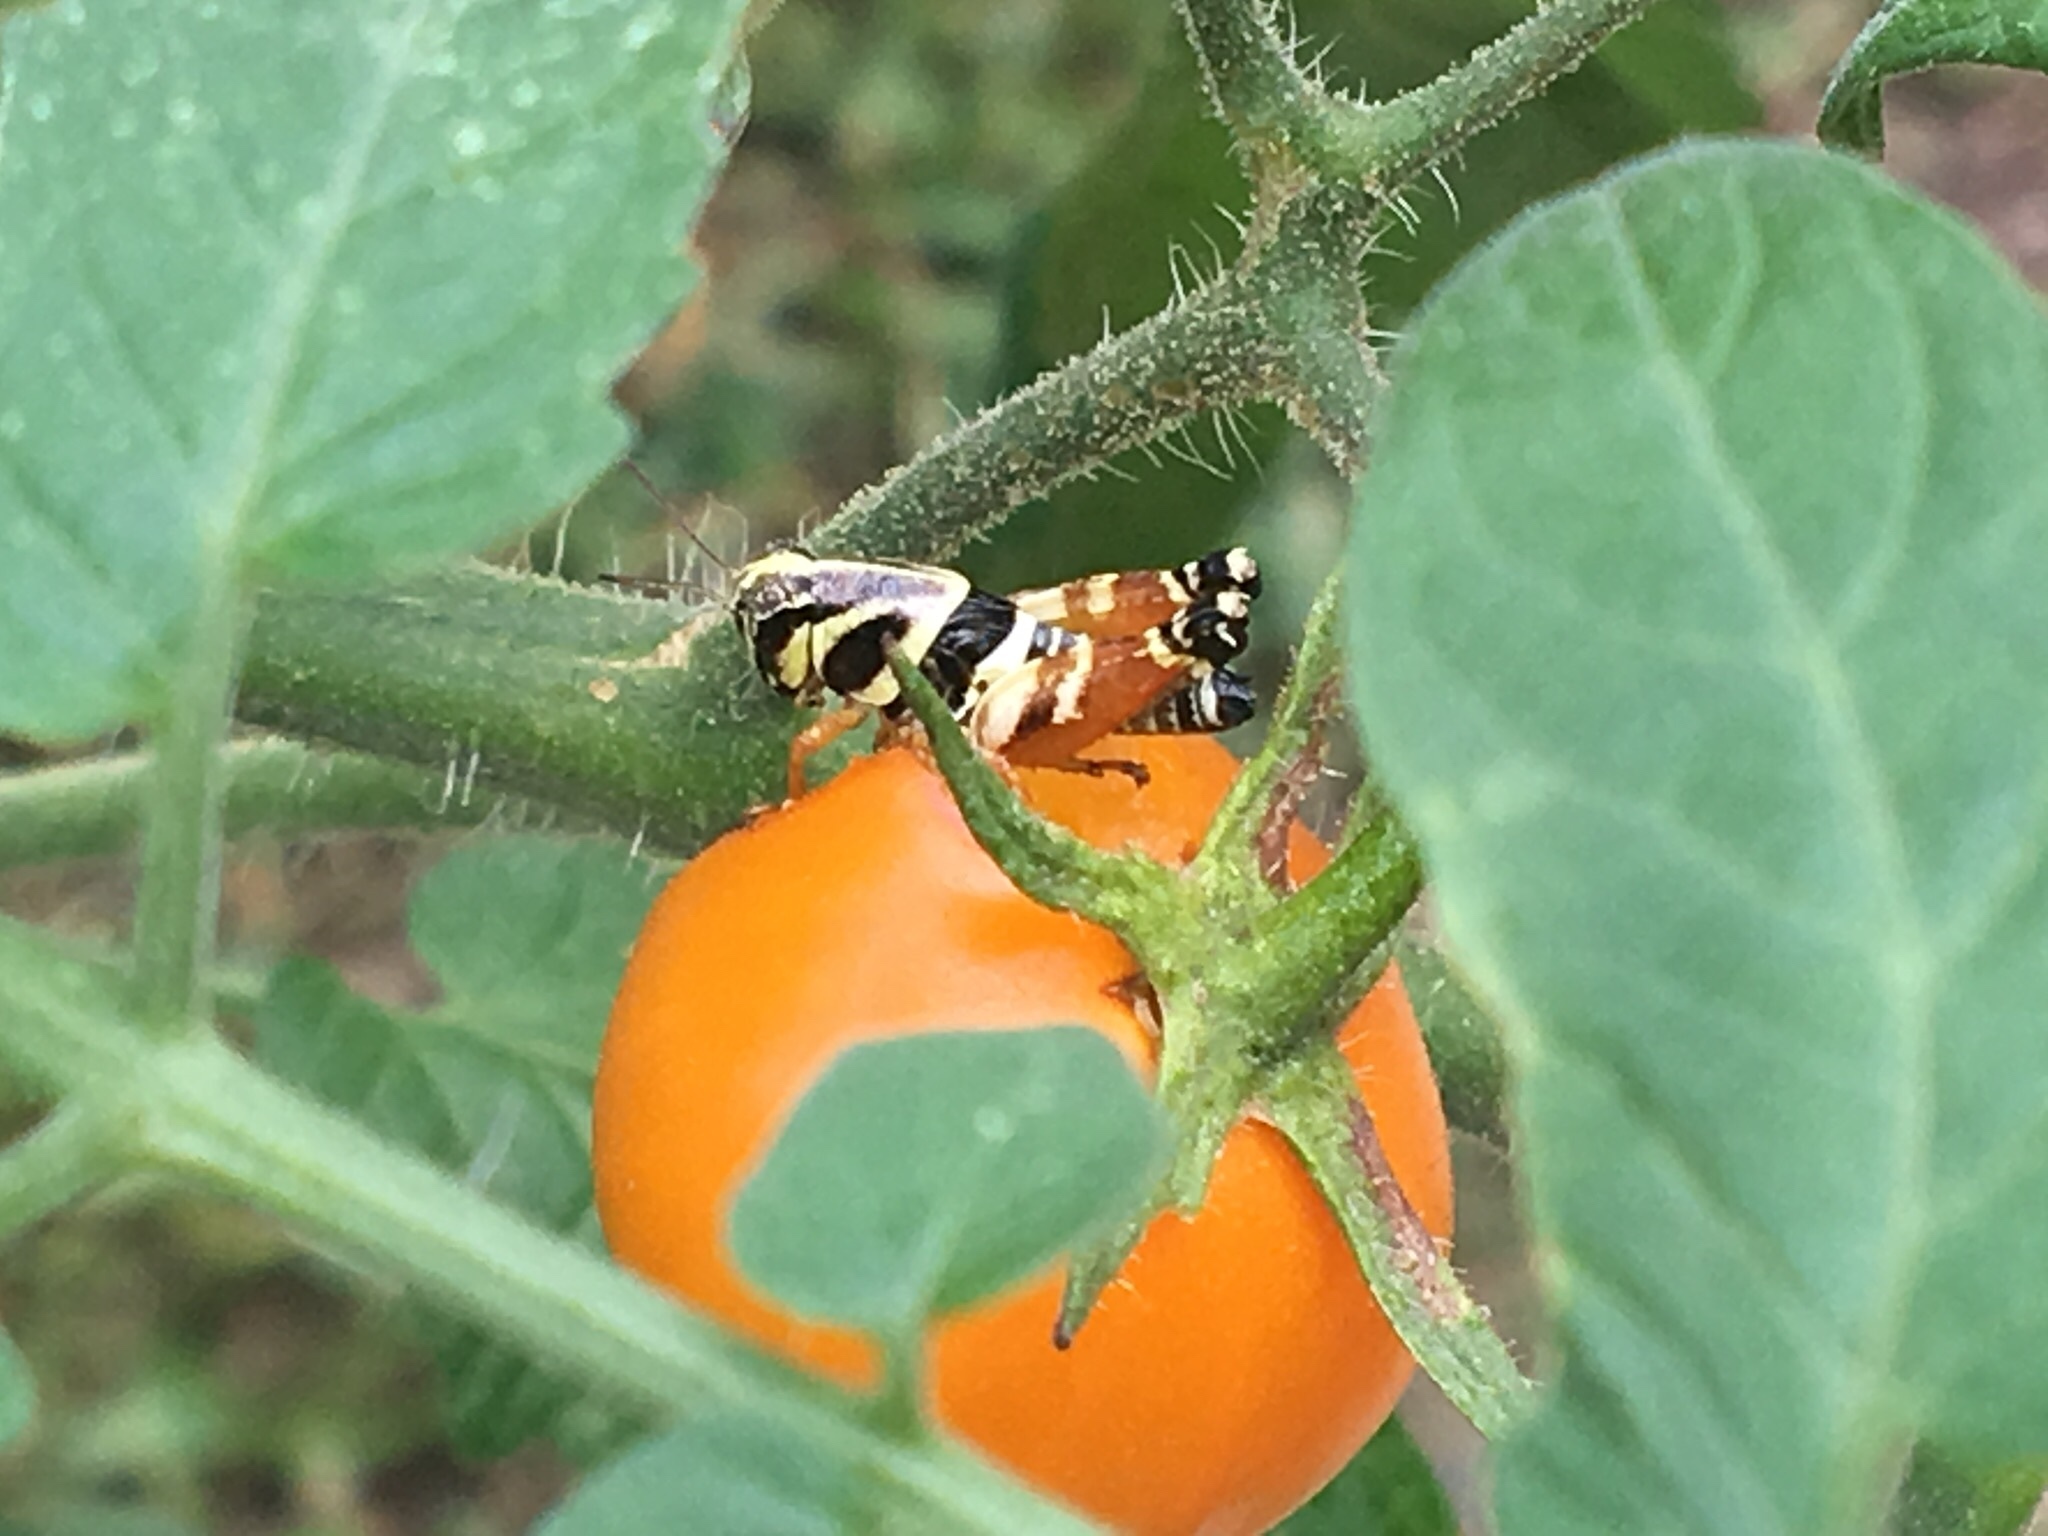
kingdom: Animalia
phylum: Arthropoda
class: Insecta
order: Orthoptera
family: Acrididae
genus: Aidemona
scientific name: Aidemona azteca
